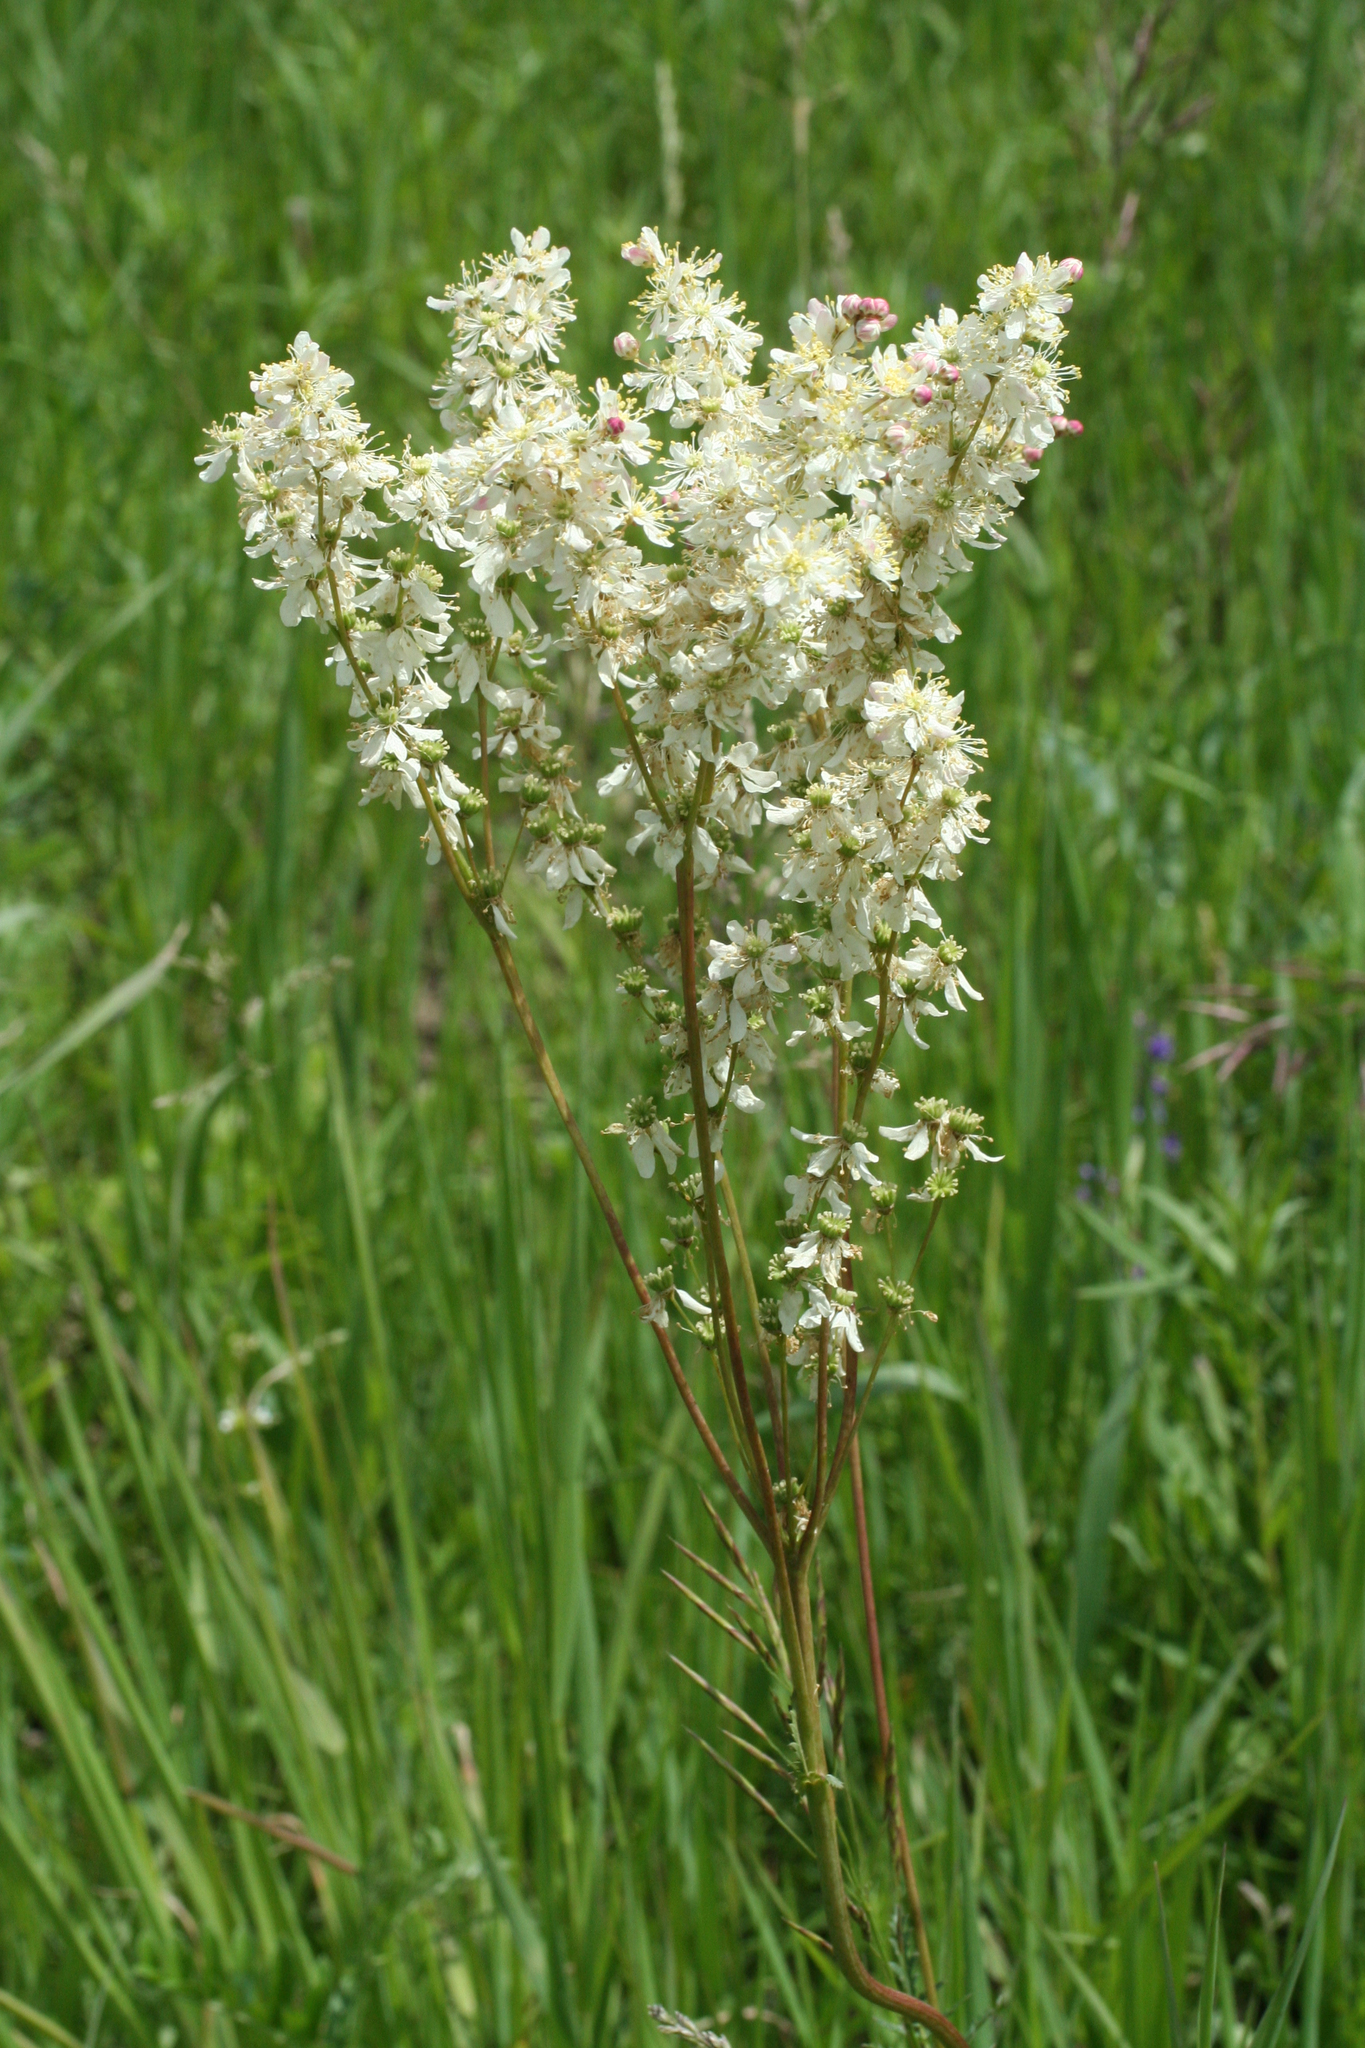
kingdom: Plantae
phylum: Tracheophyta
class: Magnoliopsida
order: Rosales
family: Rosaceae
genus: Filipendula
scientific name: Filipendula vulgaris
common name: Dropwort
